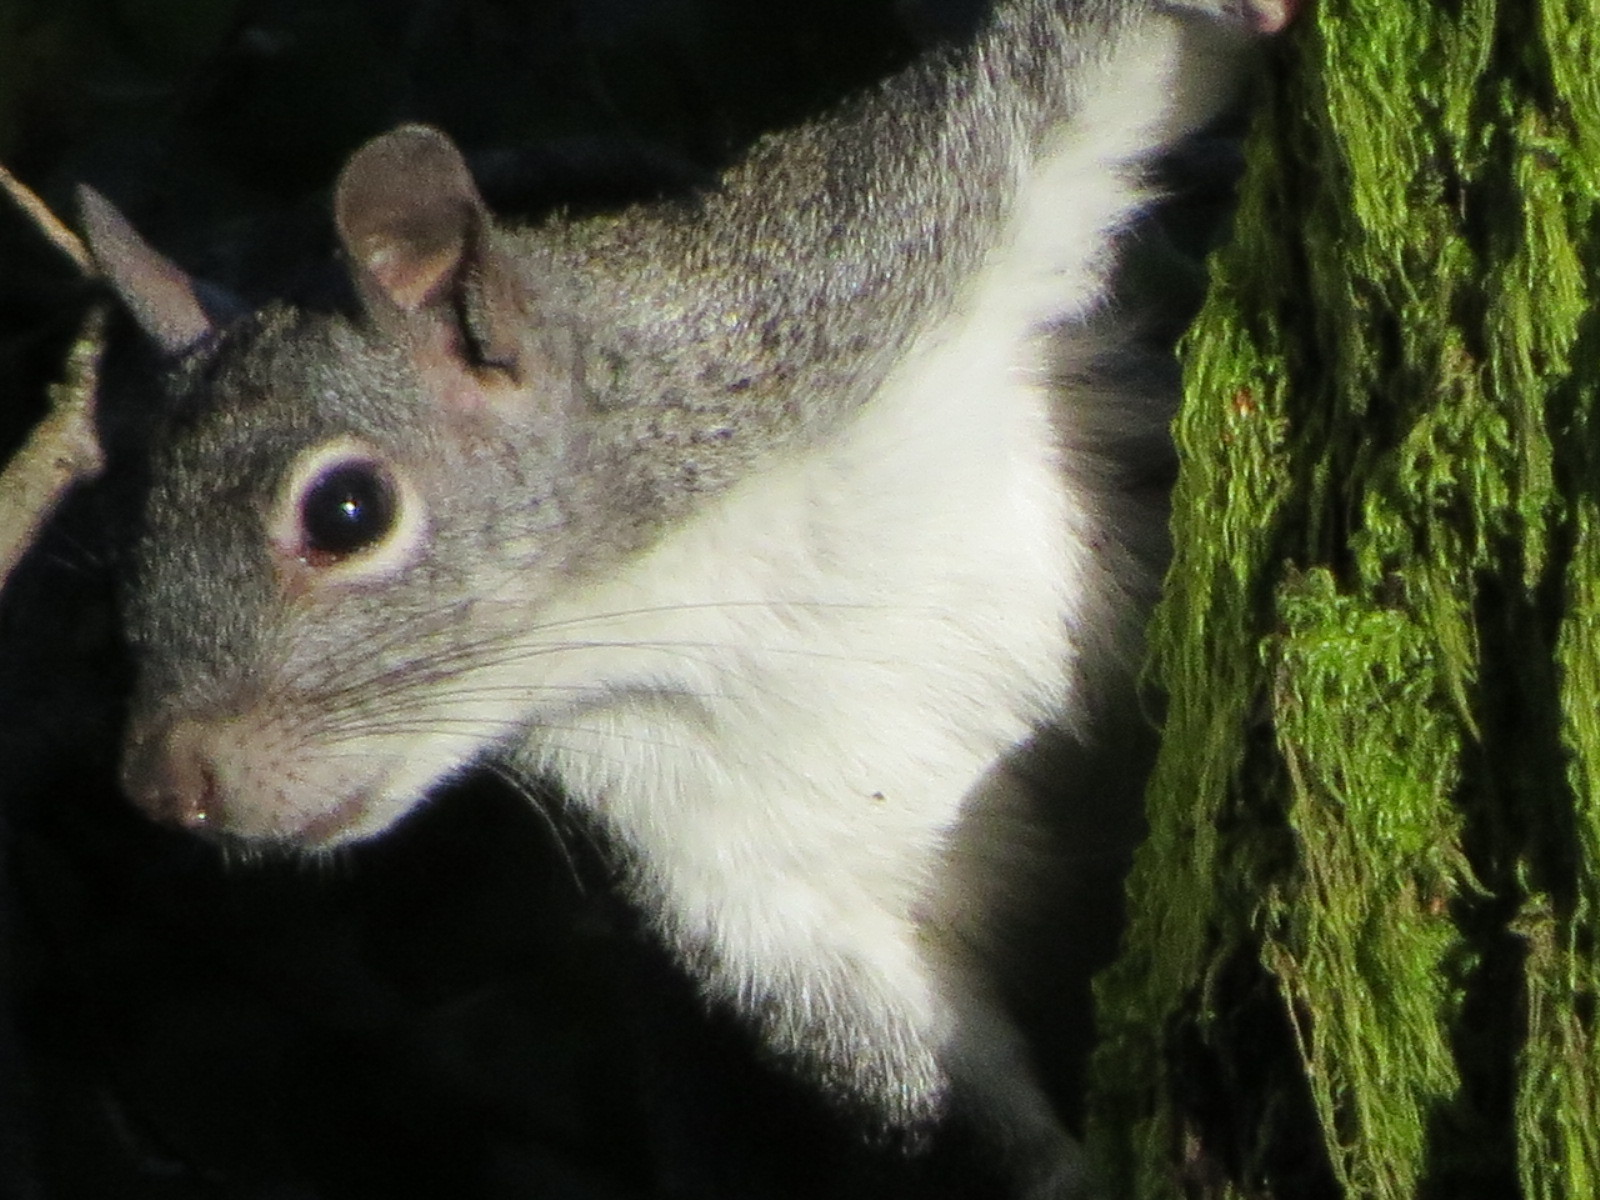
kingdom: Animalia
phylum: Chordata
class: Mammalia
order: Rodentia
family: Sciuridae
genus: Sciurus
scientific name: Sciurus griseus
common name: Western gray squirrel
